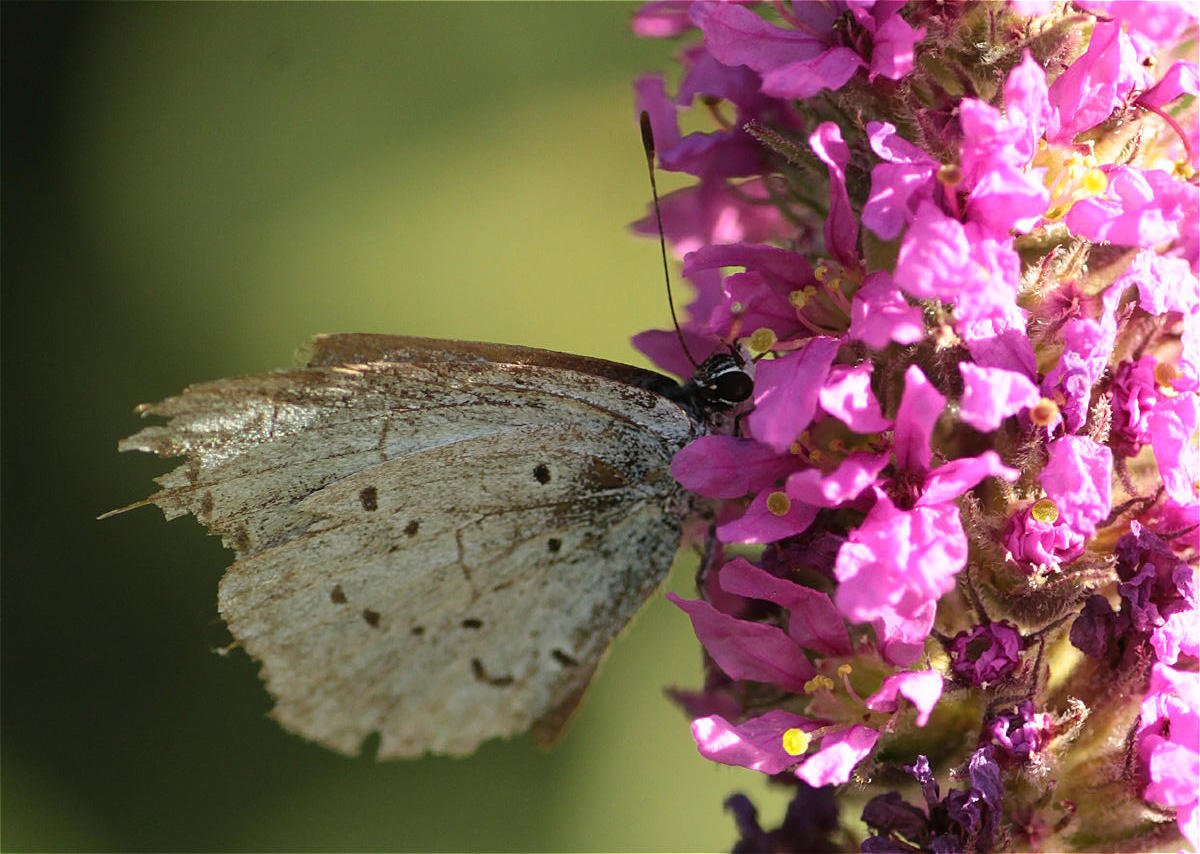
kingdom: Animalia
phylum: Arthropoda
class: Insecta
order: Lepidoptera
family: Lycaenidae
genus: Celastrina
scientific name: Celastrina argiolus
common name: Holly blue
